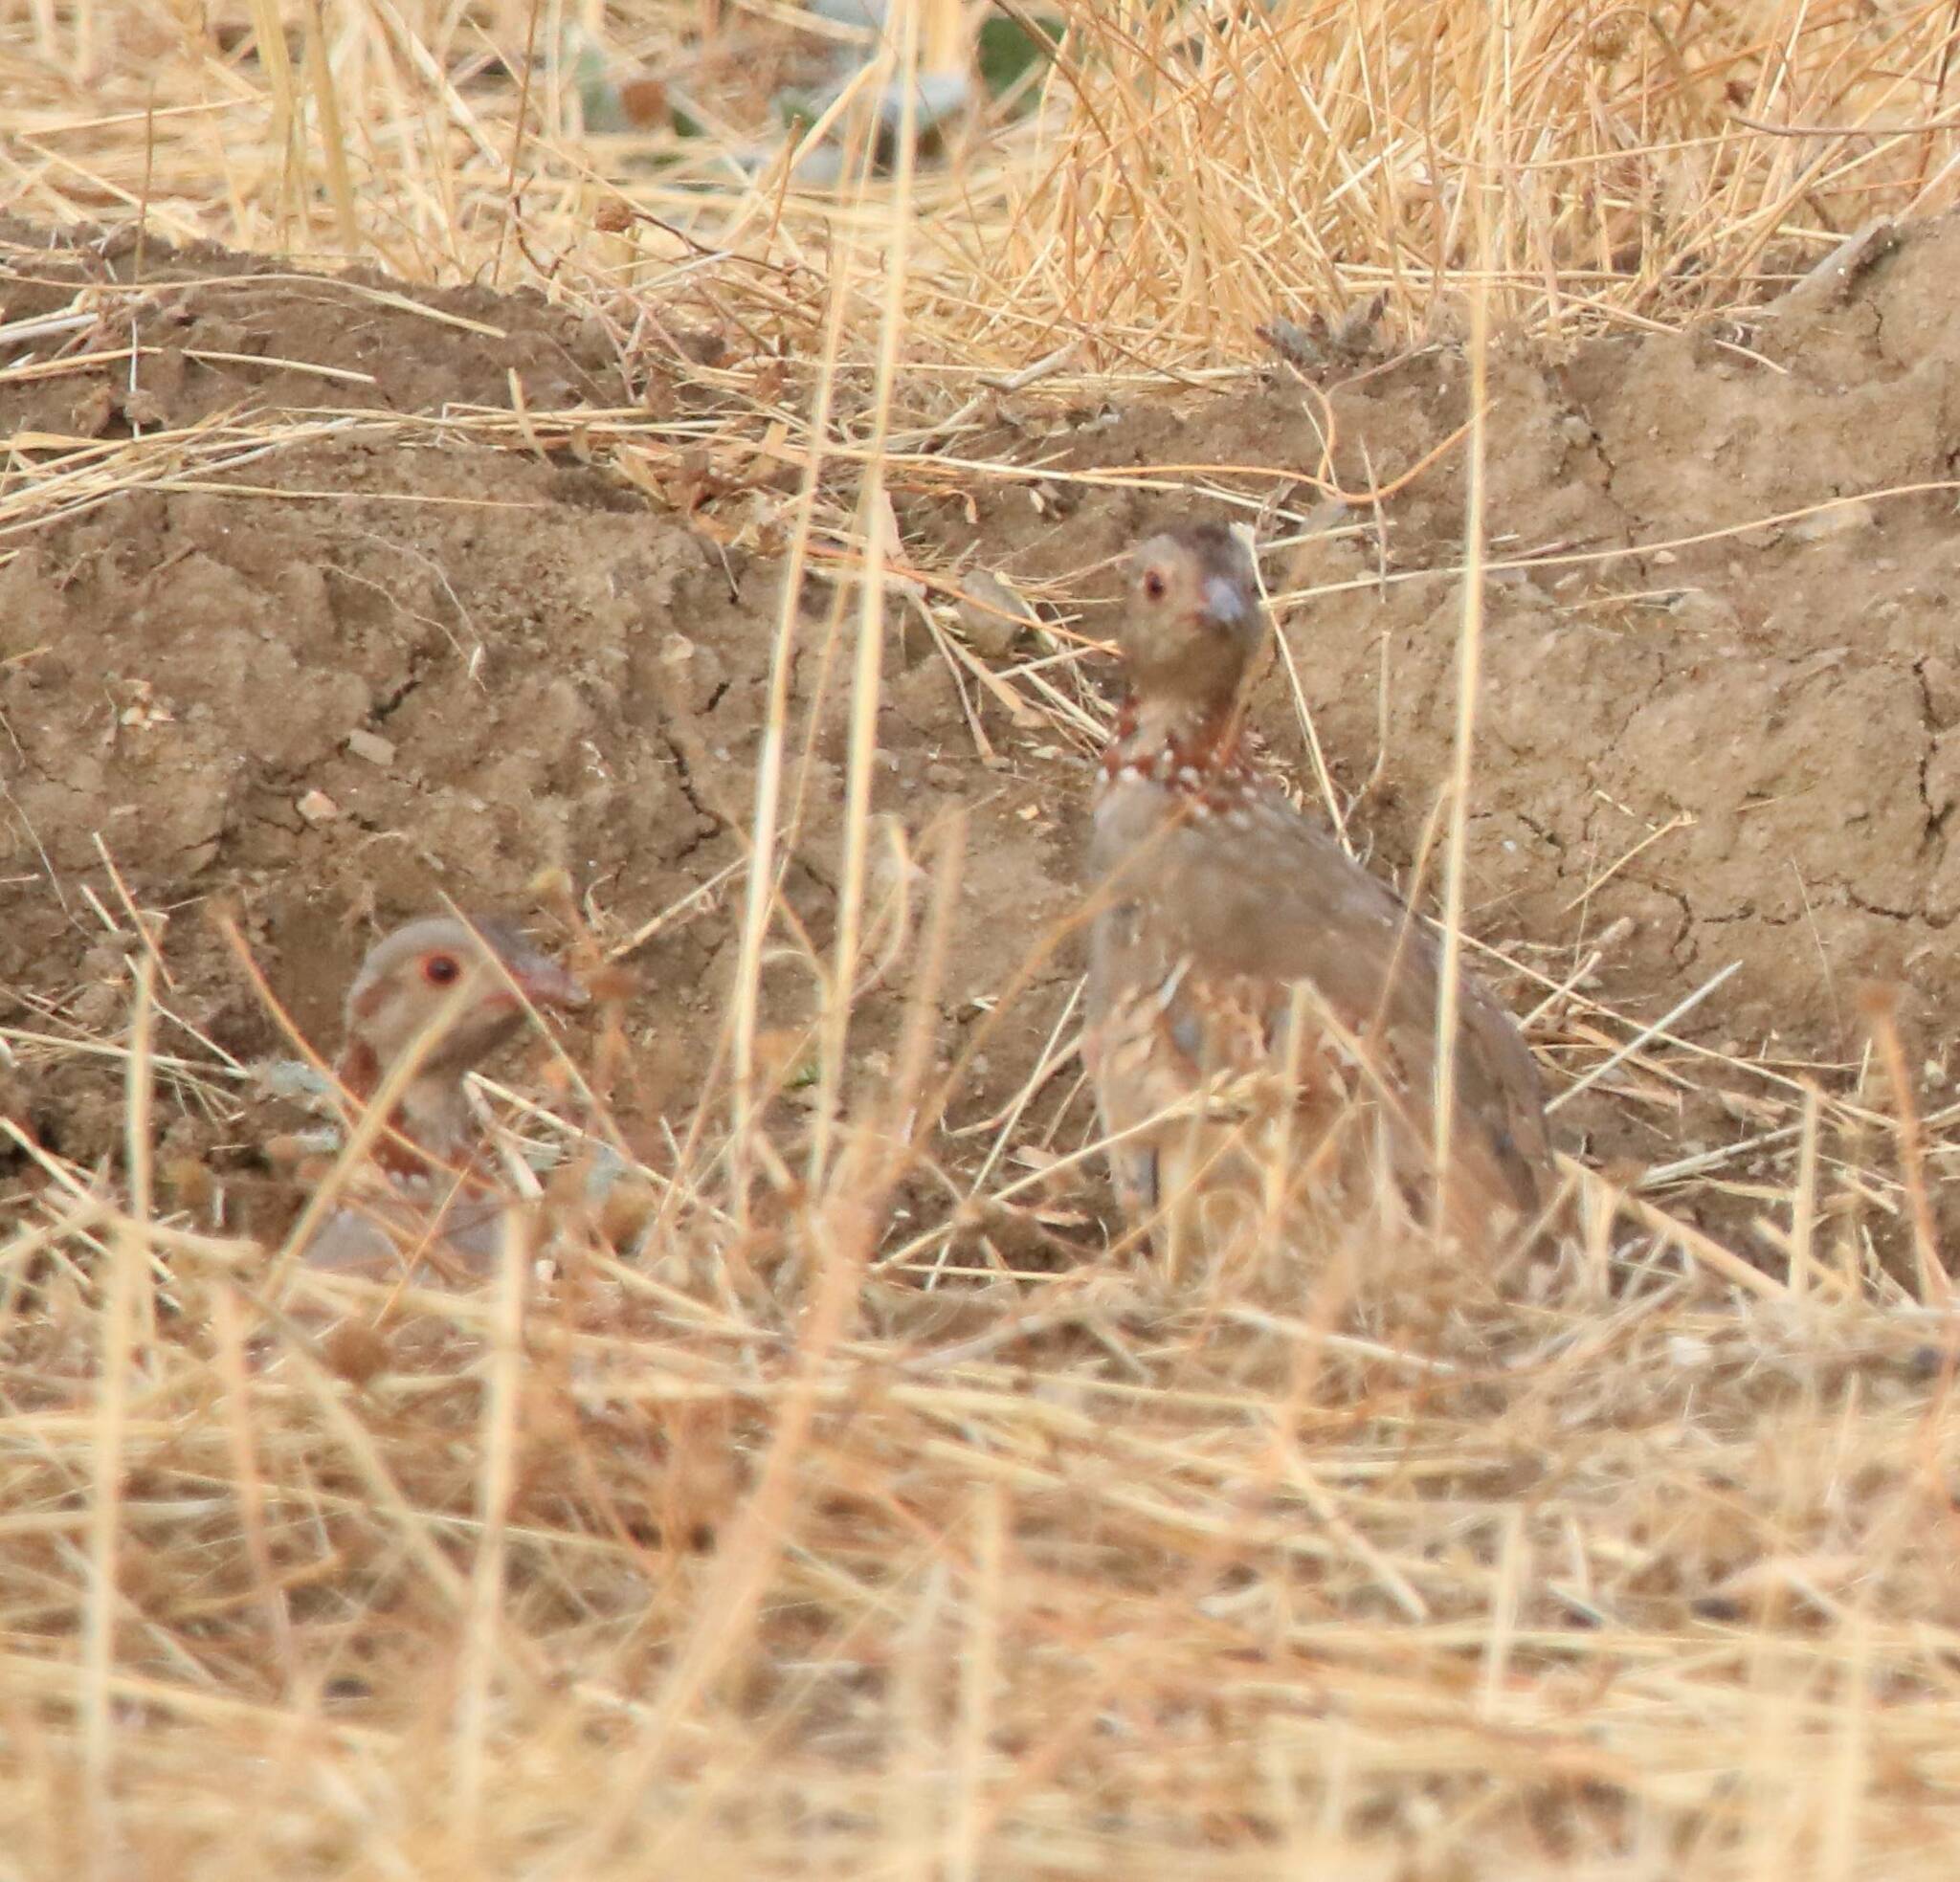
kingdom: Animalia
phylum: Chordata
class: Aves
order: Galliformes
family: Phasianidae
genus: Alectoris
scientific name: Alectoris barbara
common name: Barbary partridge
